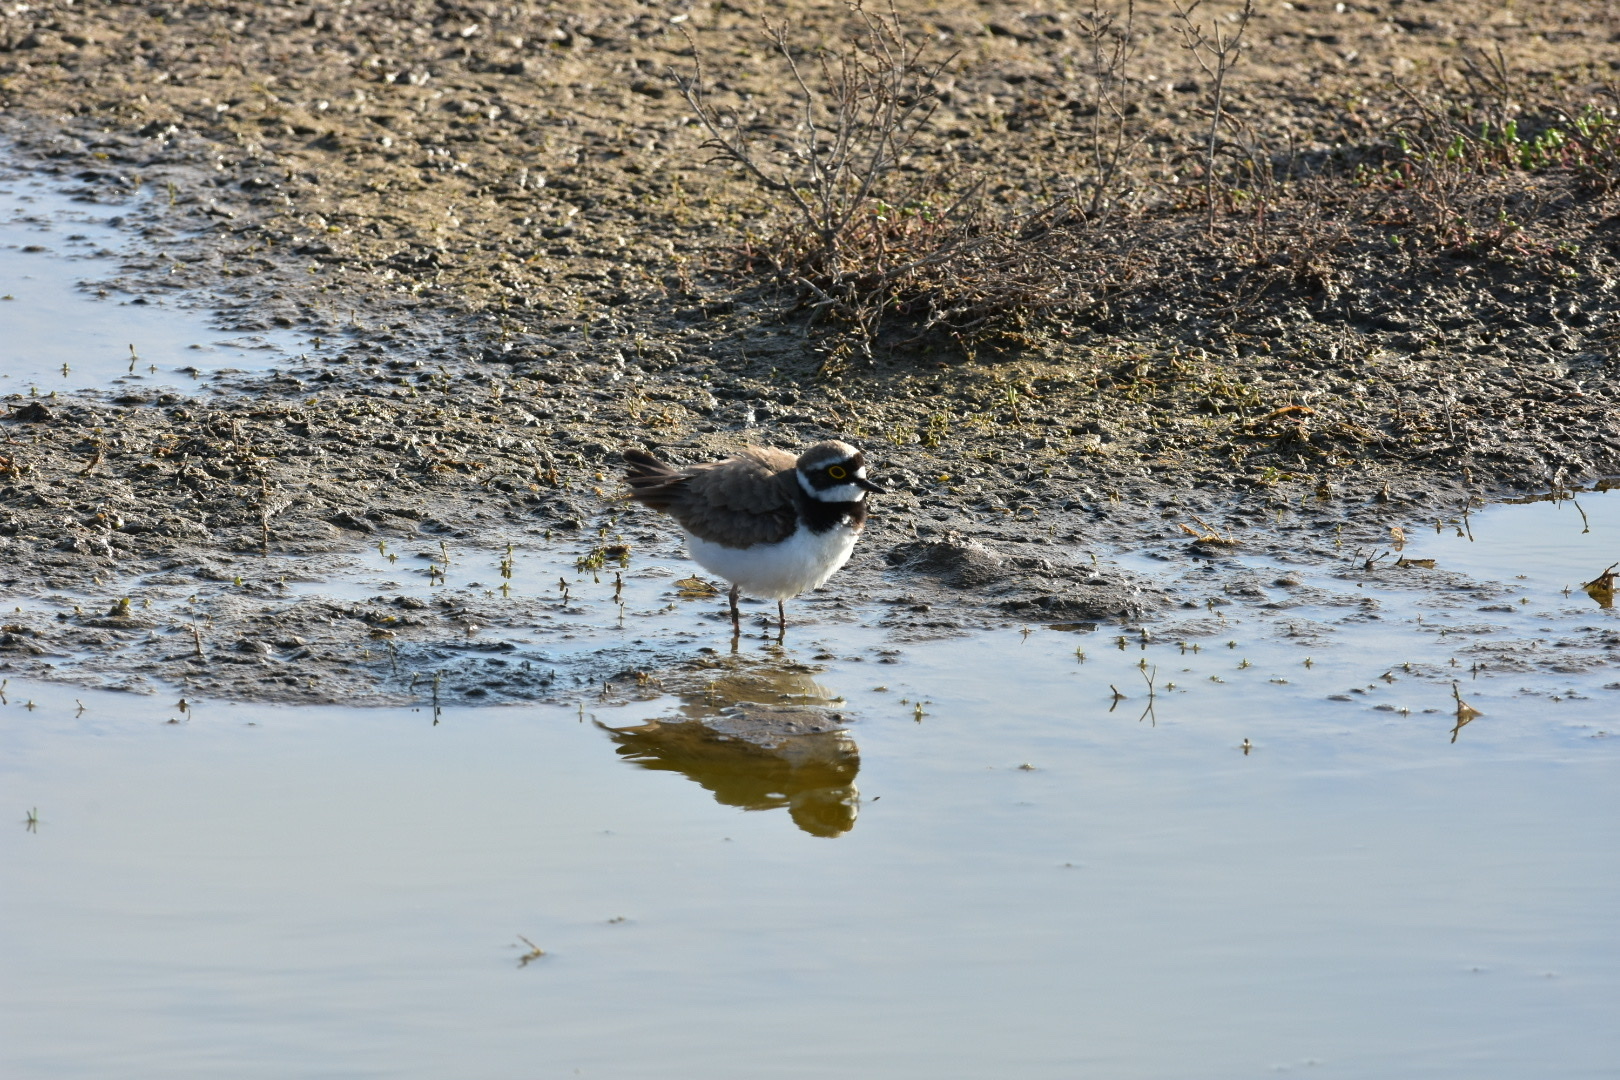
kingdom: Animalia
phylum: Chordata
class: Aves
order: Charadriiformes
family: Charadriidae
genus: Charadrius
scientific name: Charadrius dubius
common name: Little ringed plover
